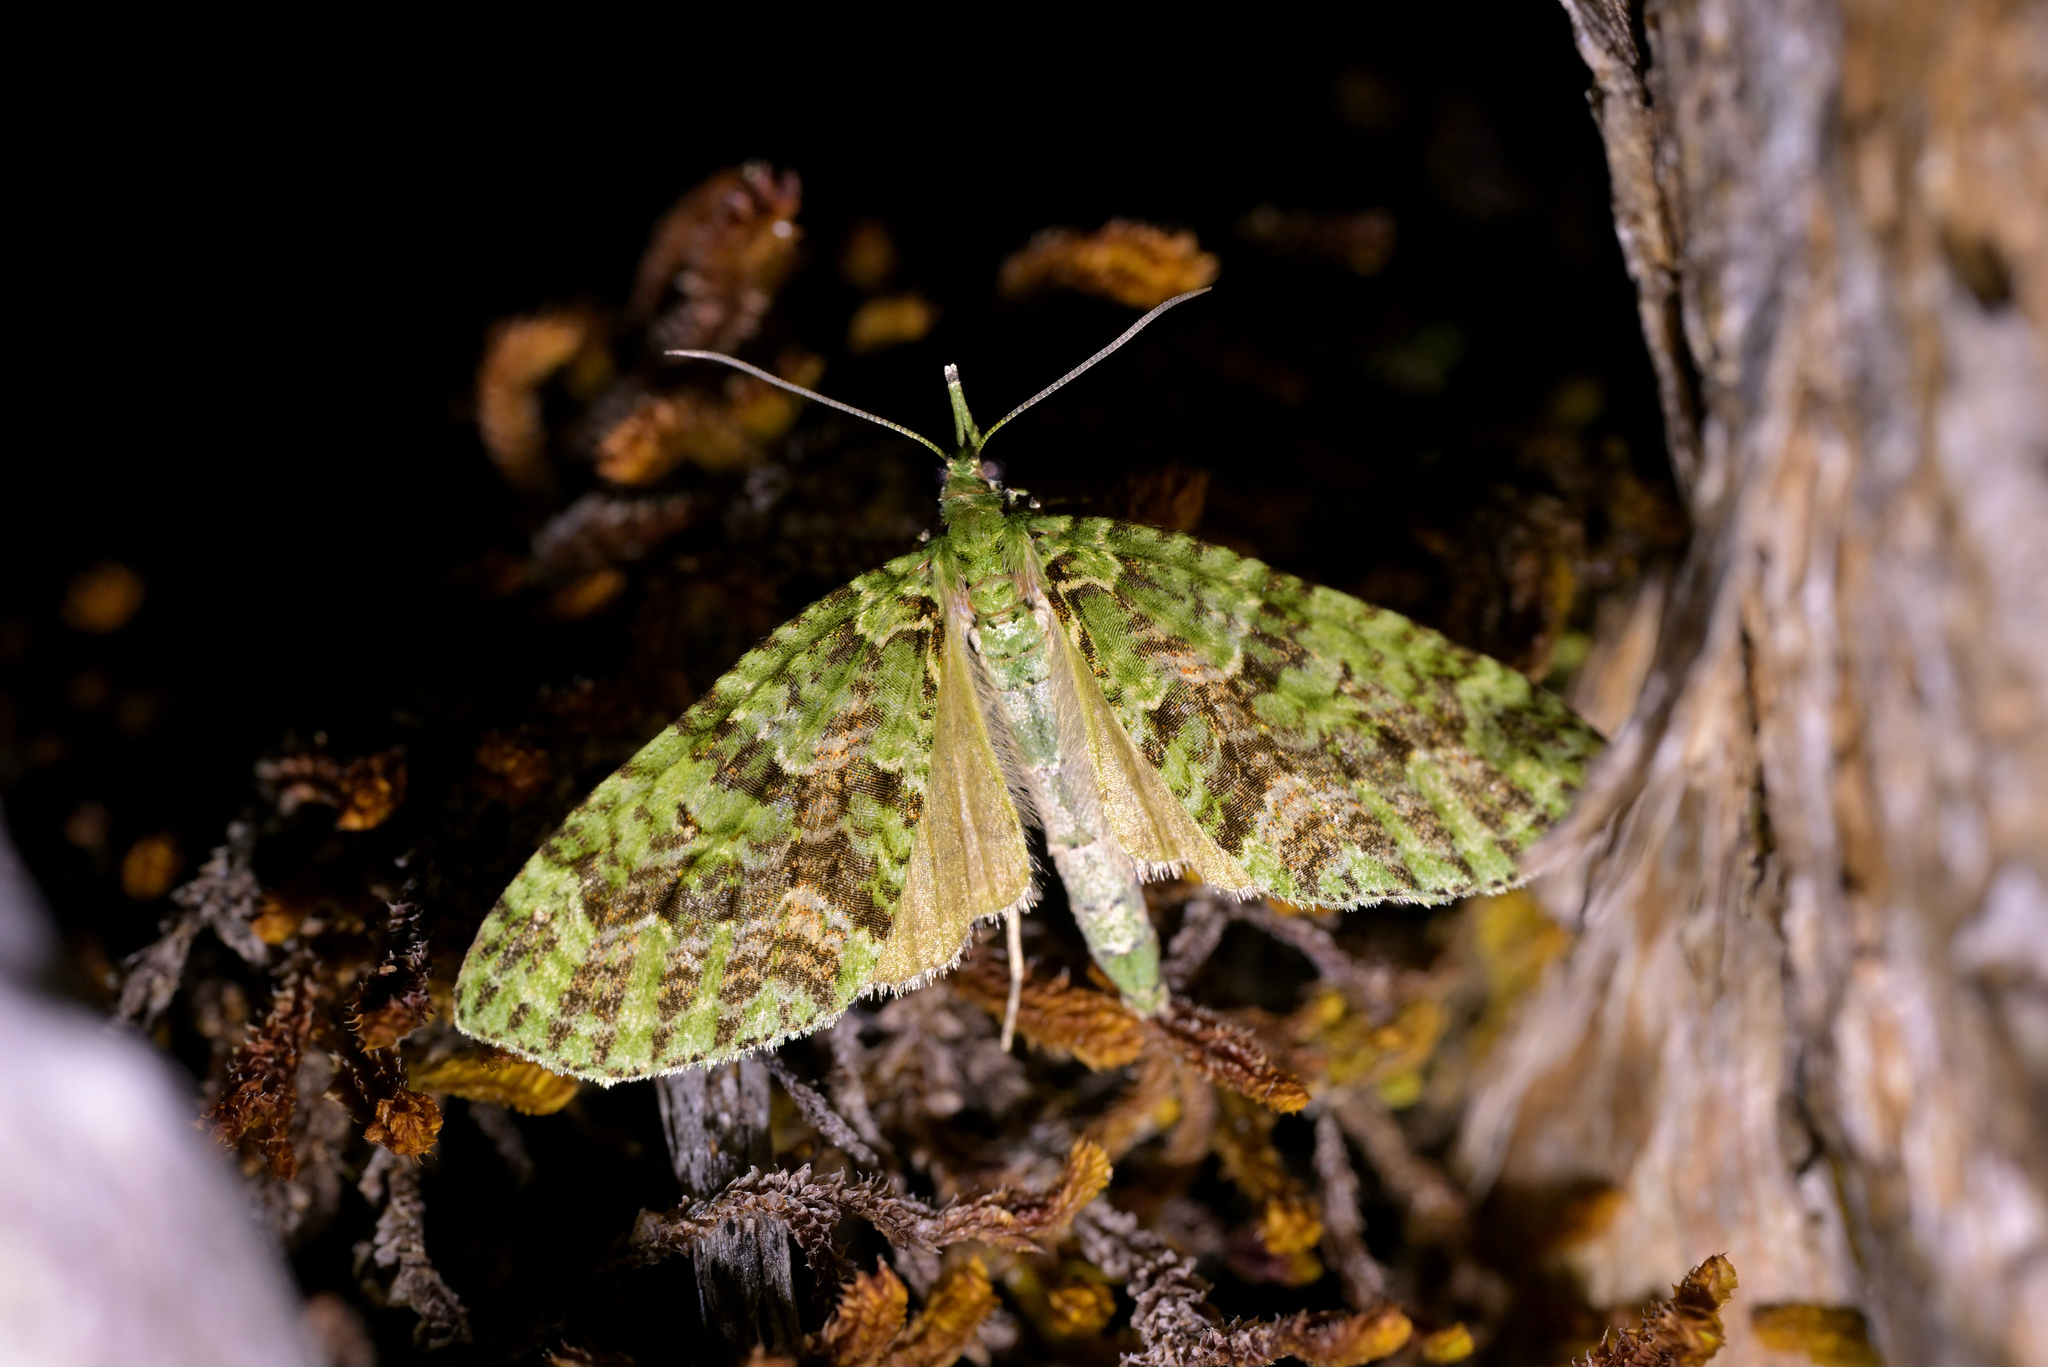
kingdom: Animalia
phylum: Arthropoda
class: Insecta
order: Lepidoptera
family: Geometridae
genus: Tatosoma
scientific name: Tatosoma tipulata
